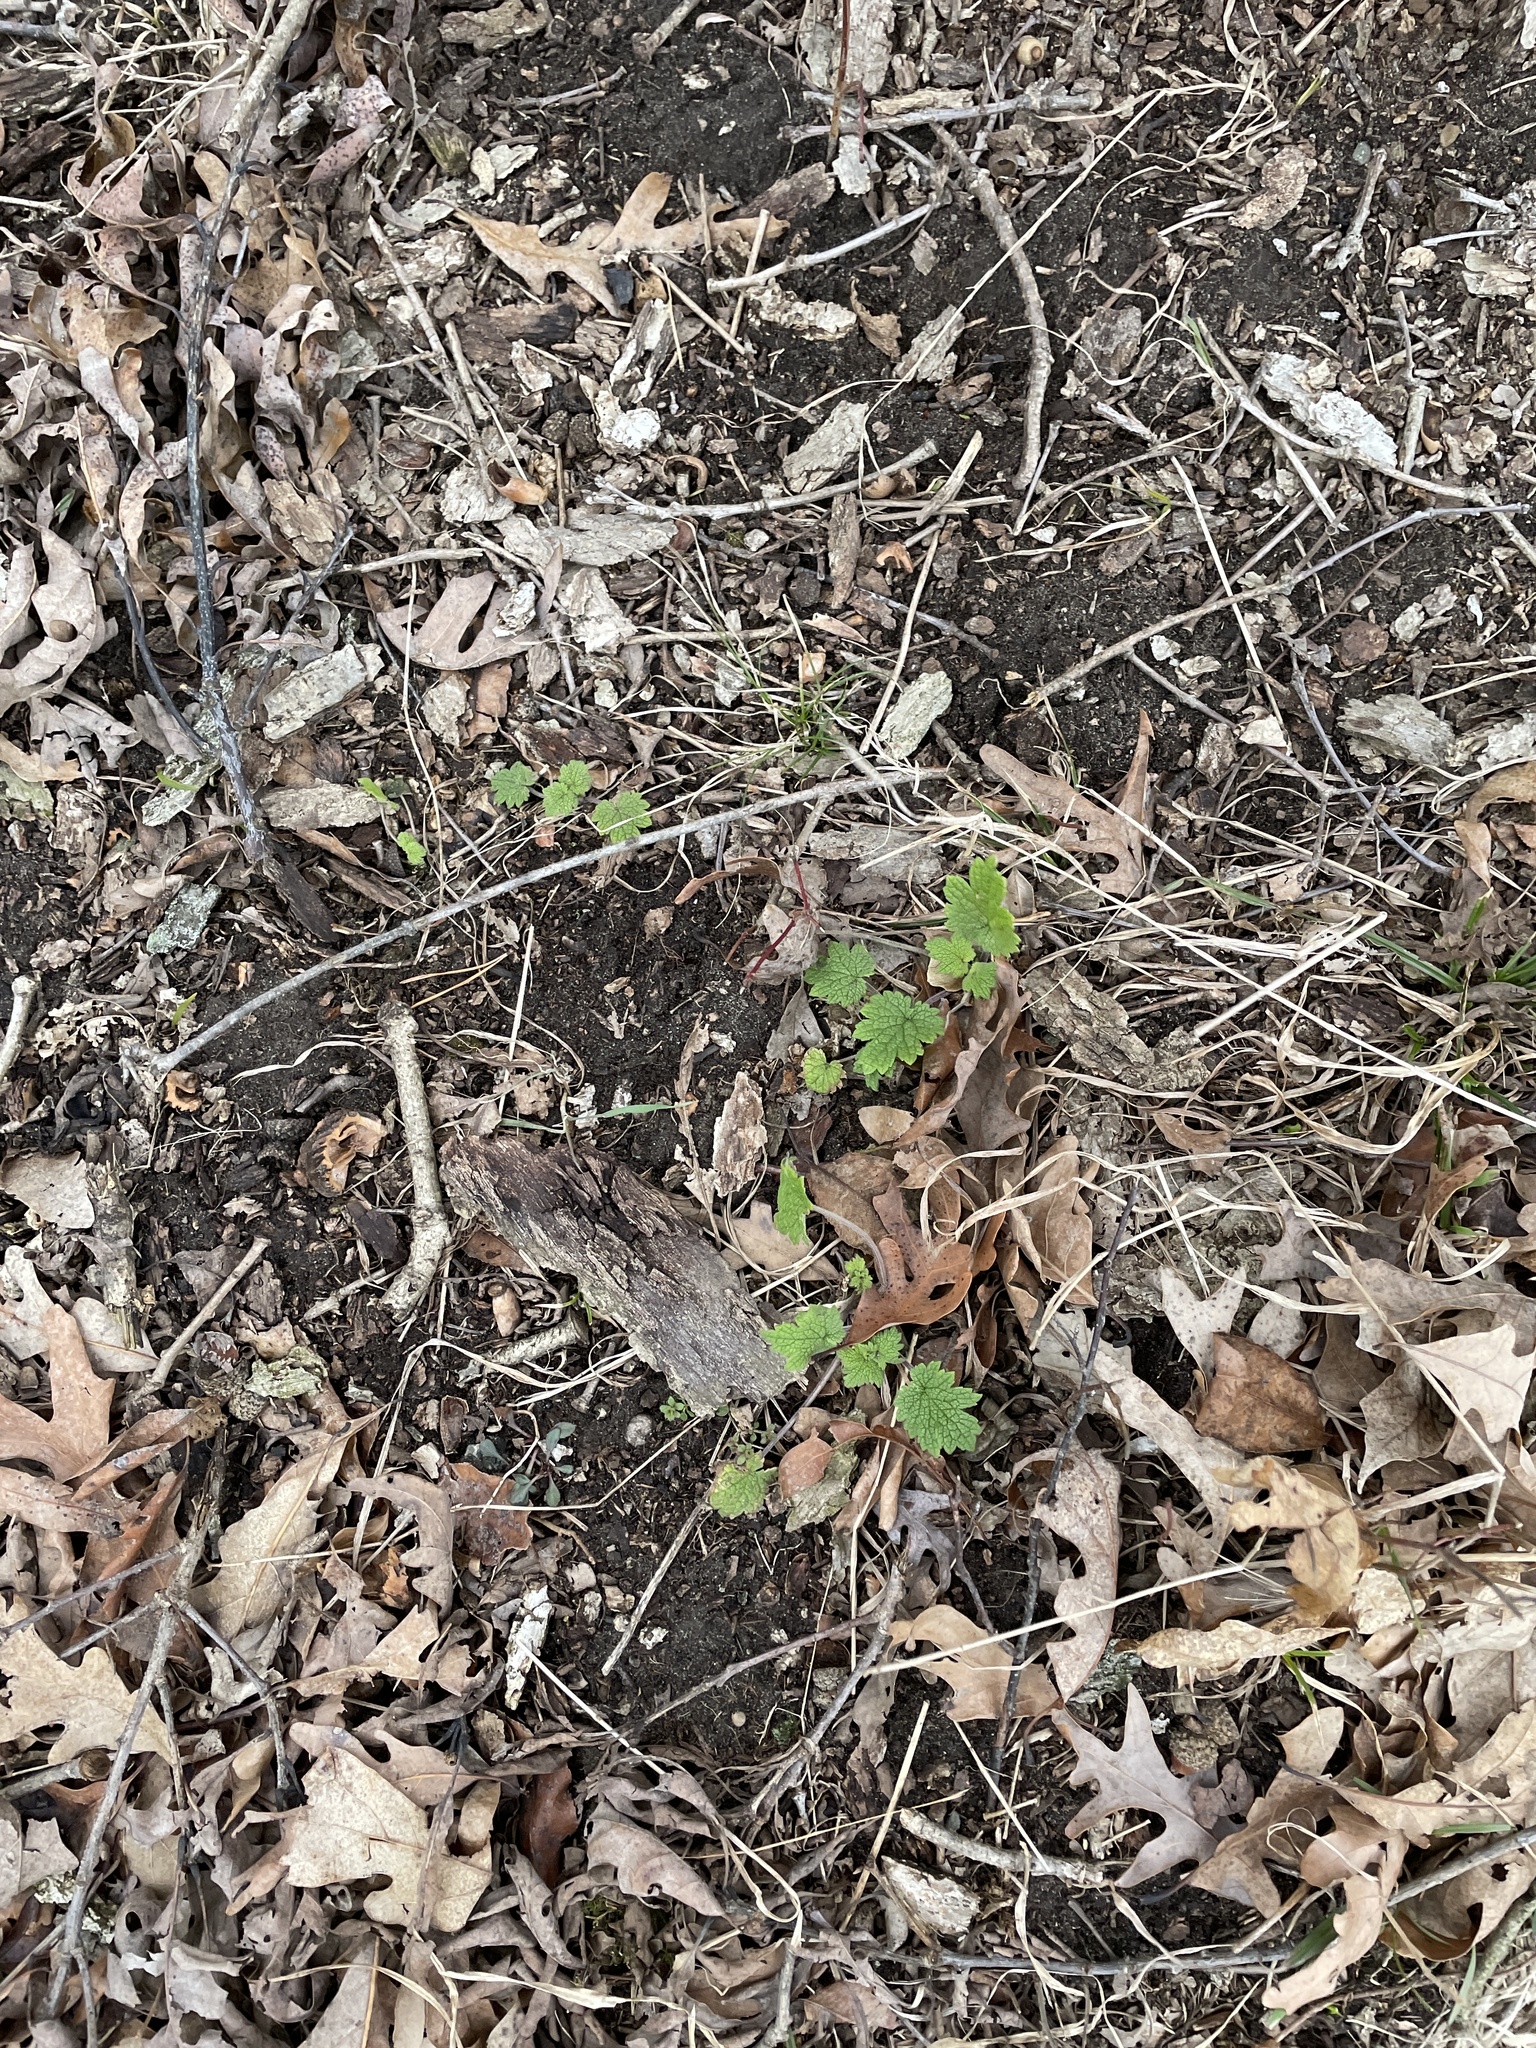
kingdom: Plantae
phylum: Tracheophyta
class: Magnoliopsida
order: Lamiales
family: Lamiaceae
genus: Leonurus
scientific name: Leonurus cardiaca
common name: Motherwort
